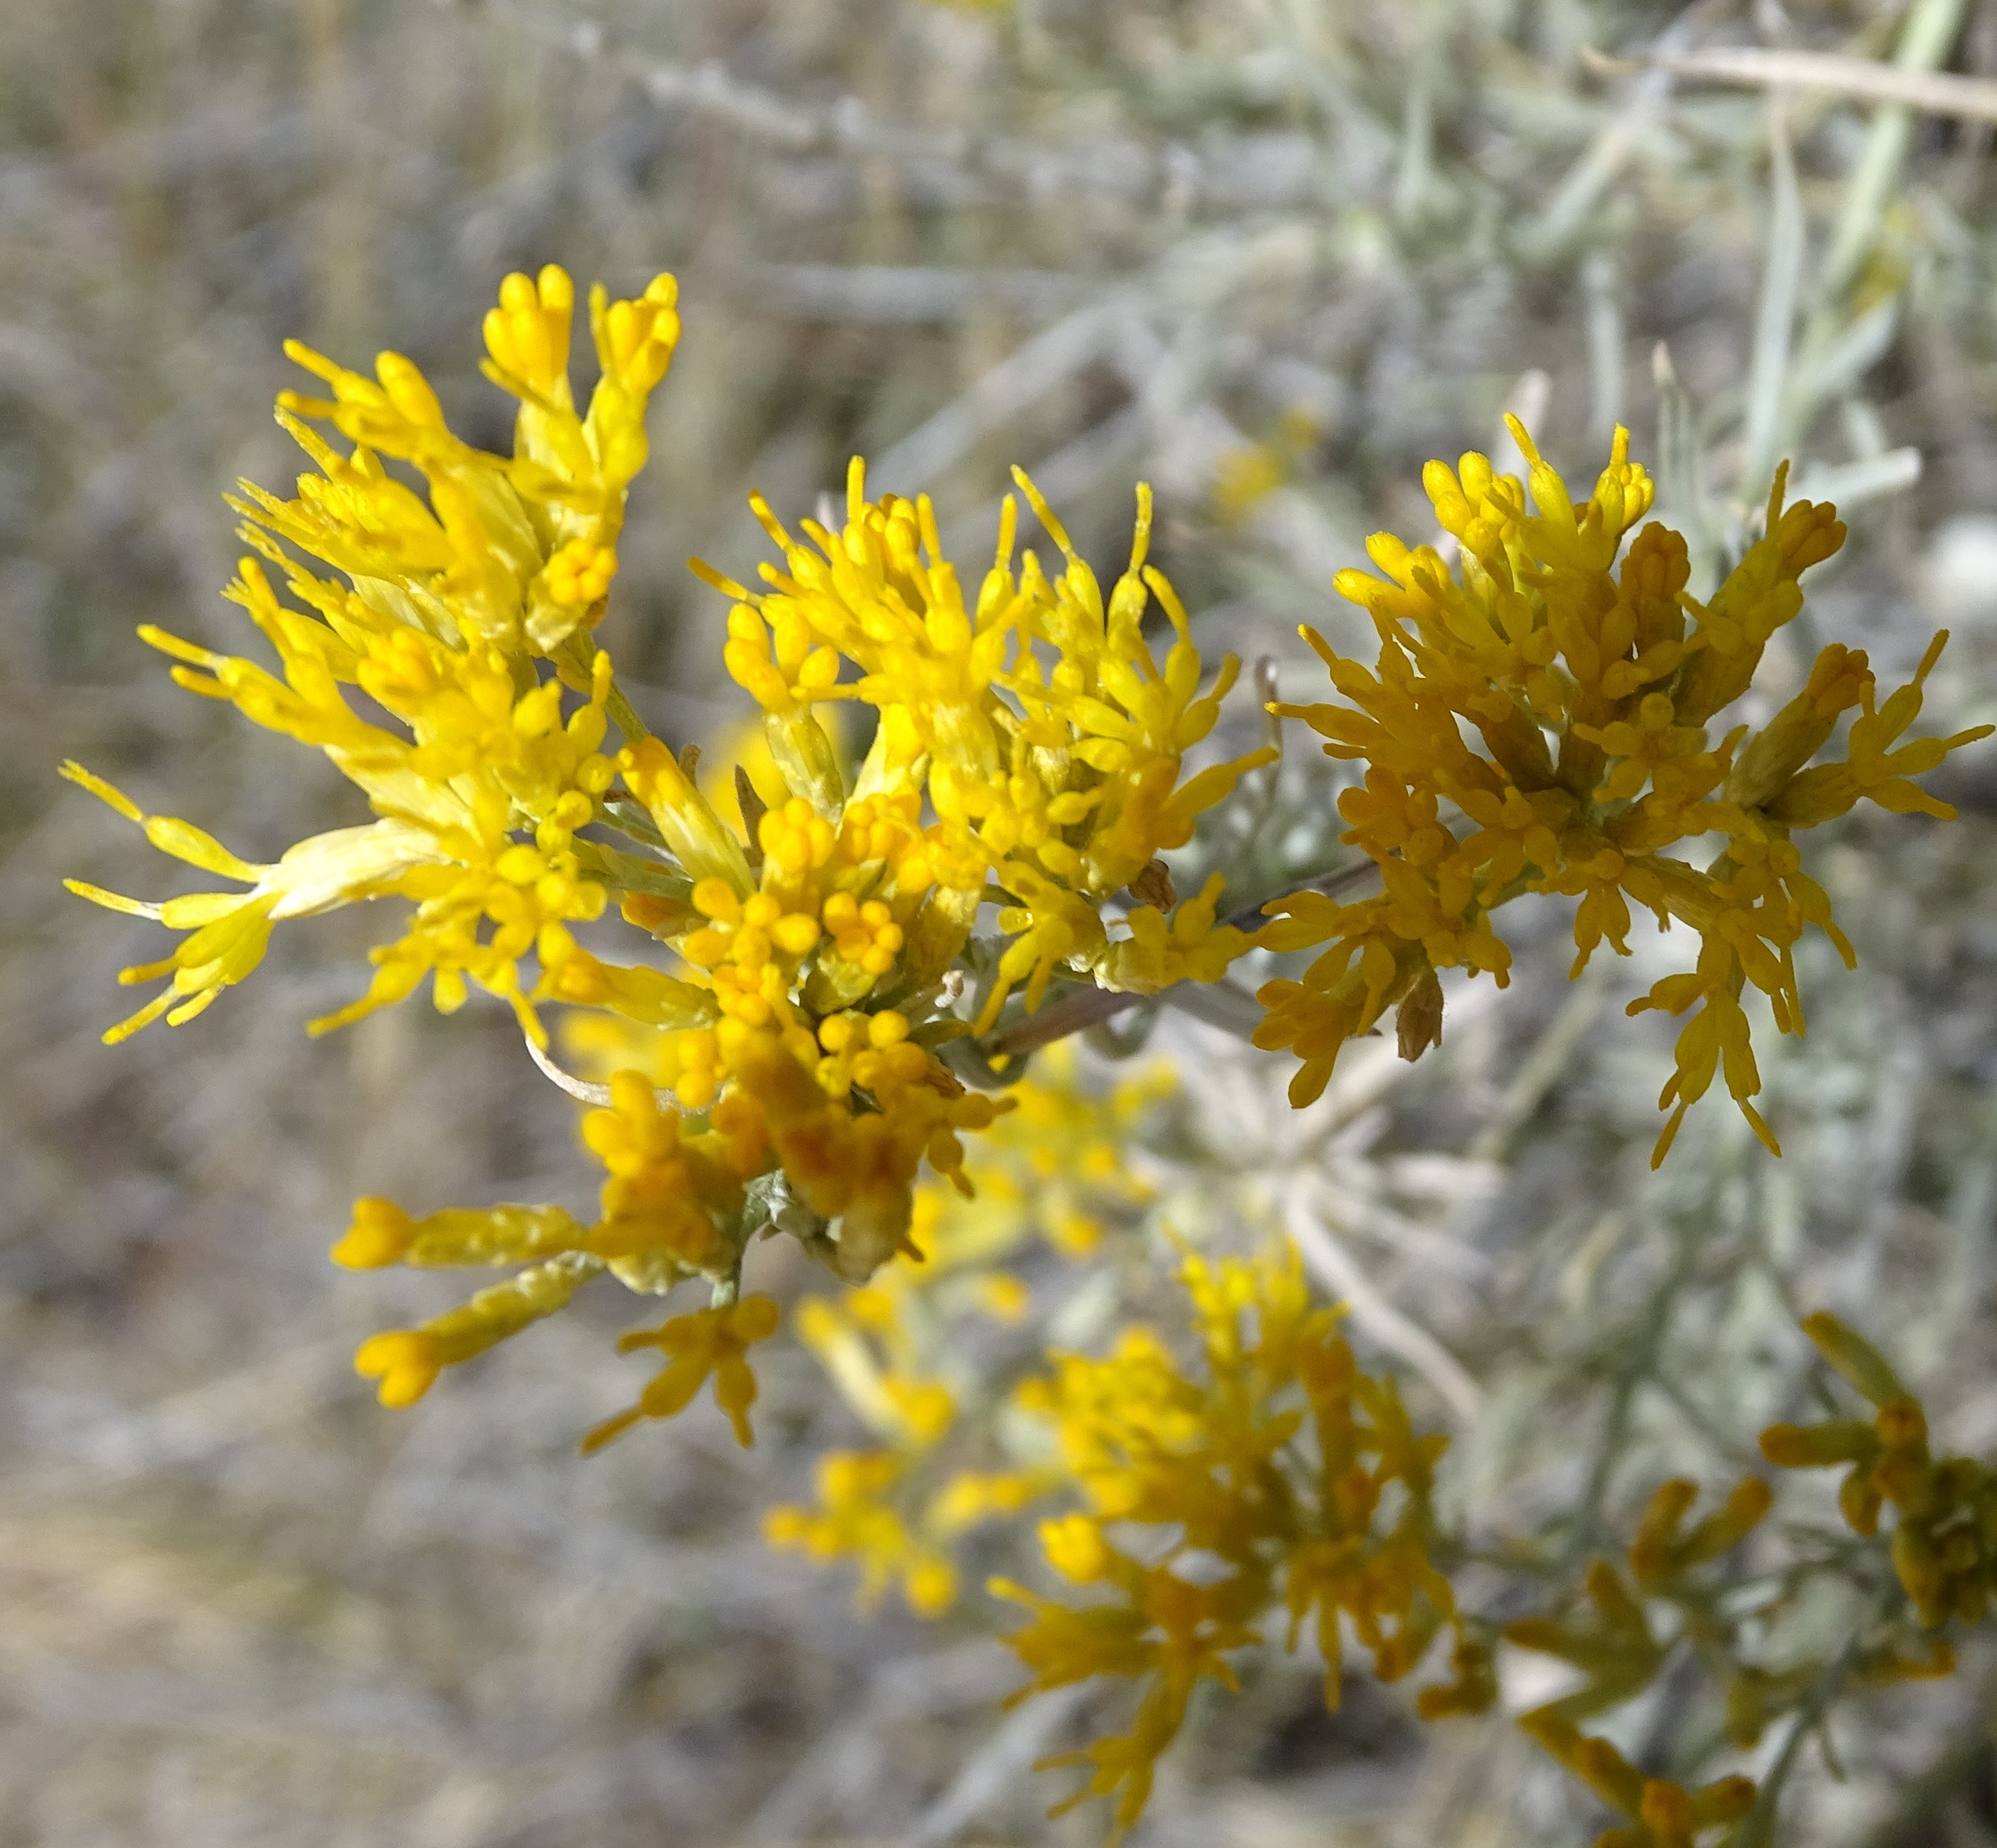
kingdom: Plantae
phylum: Tracheophyta
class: Magnoliopsida
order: Asterales
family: Asteraceae
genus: Ericameria
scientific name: Ericameria nauseosa
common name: Rubber rabbitbrush
